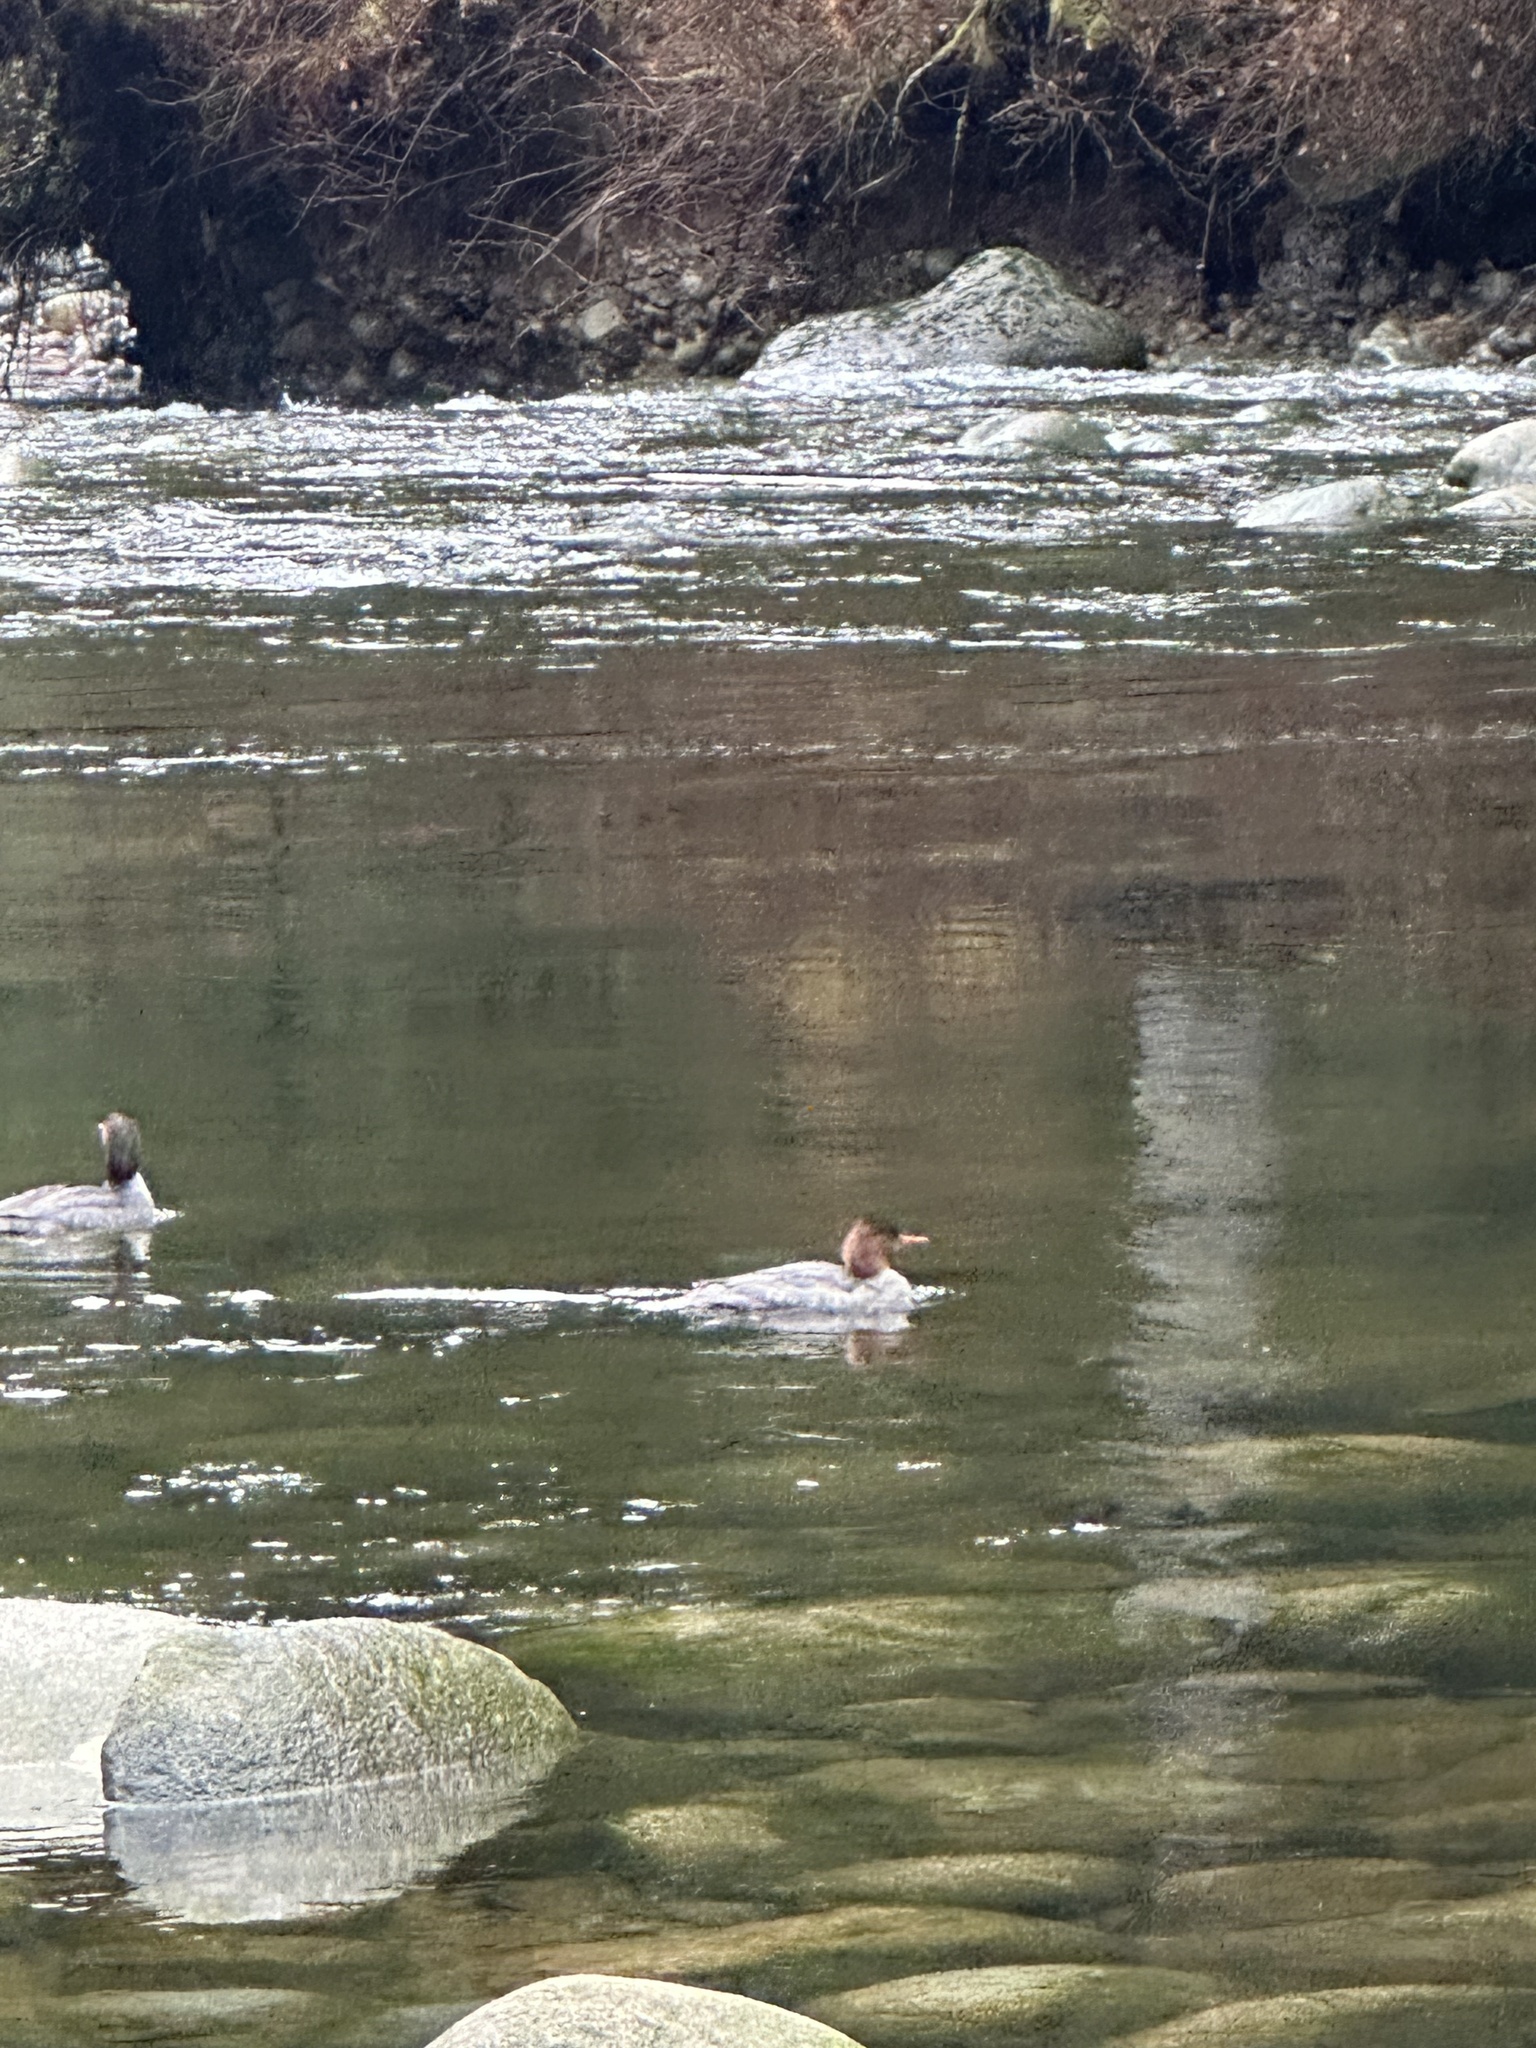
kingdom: Animalia
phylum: Chordata
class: Aves
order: Anseriformes
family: Anatidae
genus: Mergus
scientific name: Mergus merganser
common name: Common merganser
